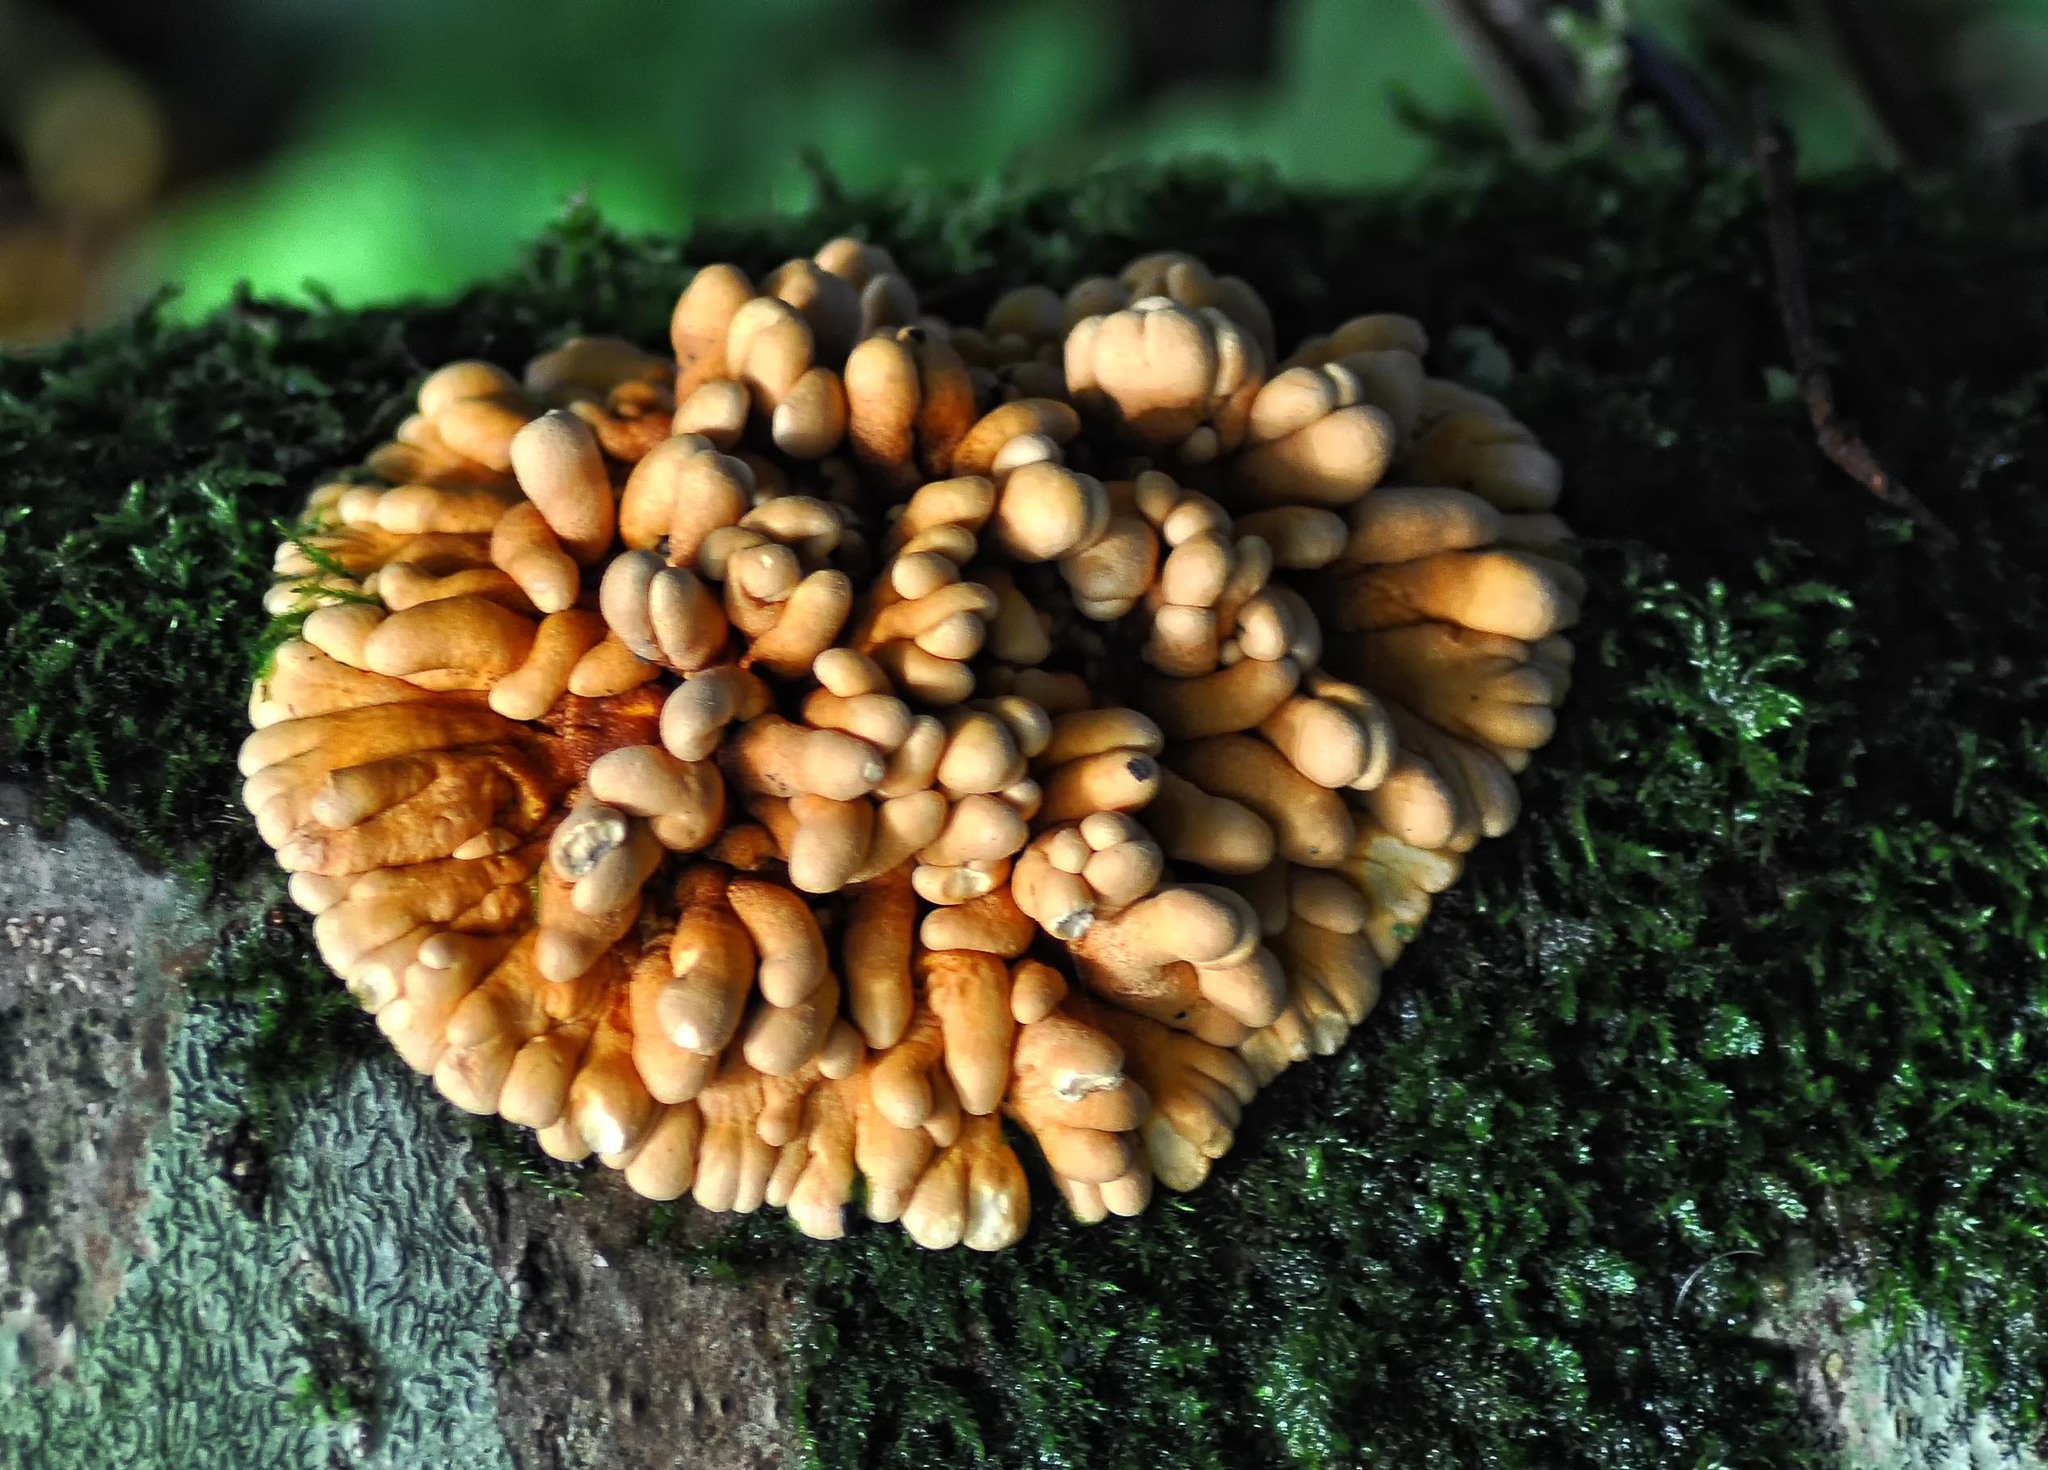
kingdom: Fungi
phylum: Ascomycota
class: Sordariomycetes
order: Hypocreales
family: Hypocreaceae
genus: Hypocreopsis
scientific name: Hypocreopsis rhododendri
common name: Hazel gloves
